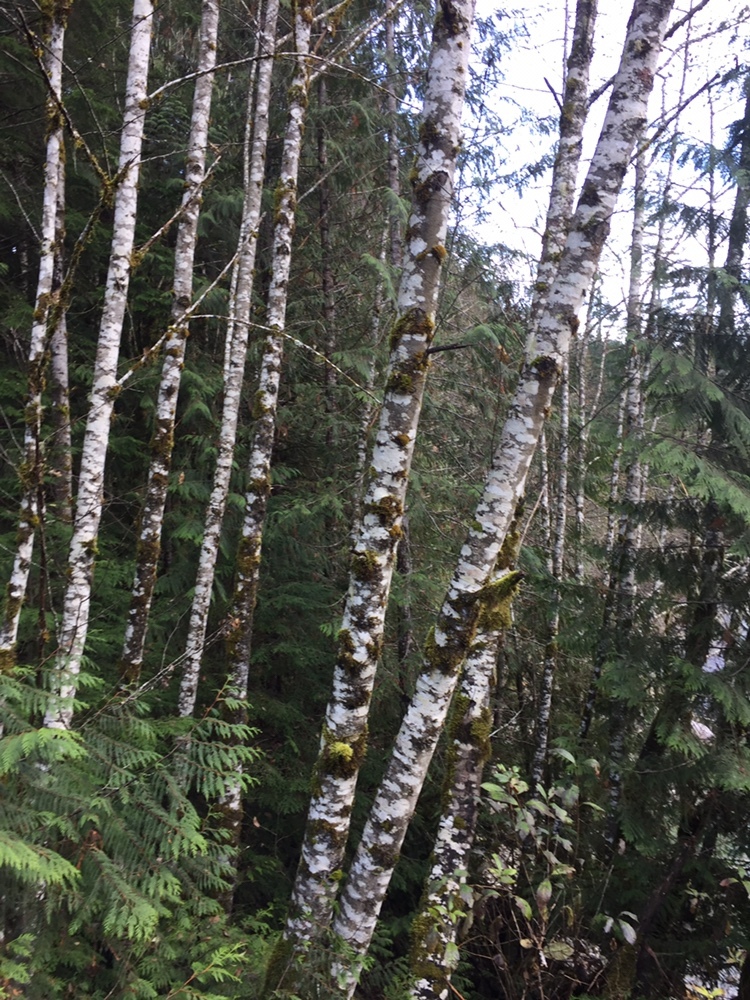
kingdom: Plantae
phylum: Tracheophyta
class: Magnoliopsida
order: Fagales
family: Betulaceae
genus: Alnus
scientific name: Alnus rubra
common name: Red alder
